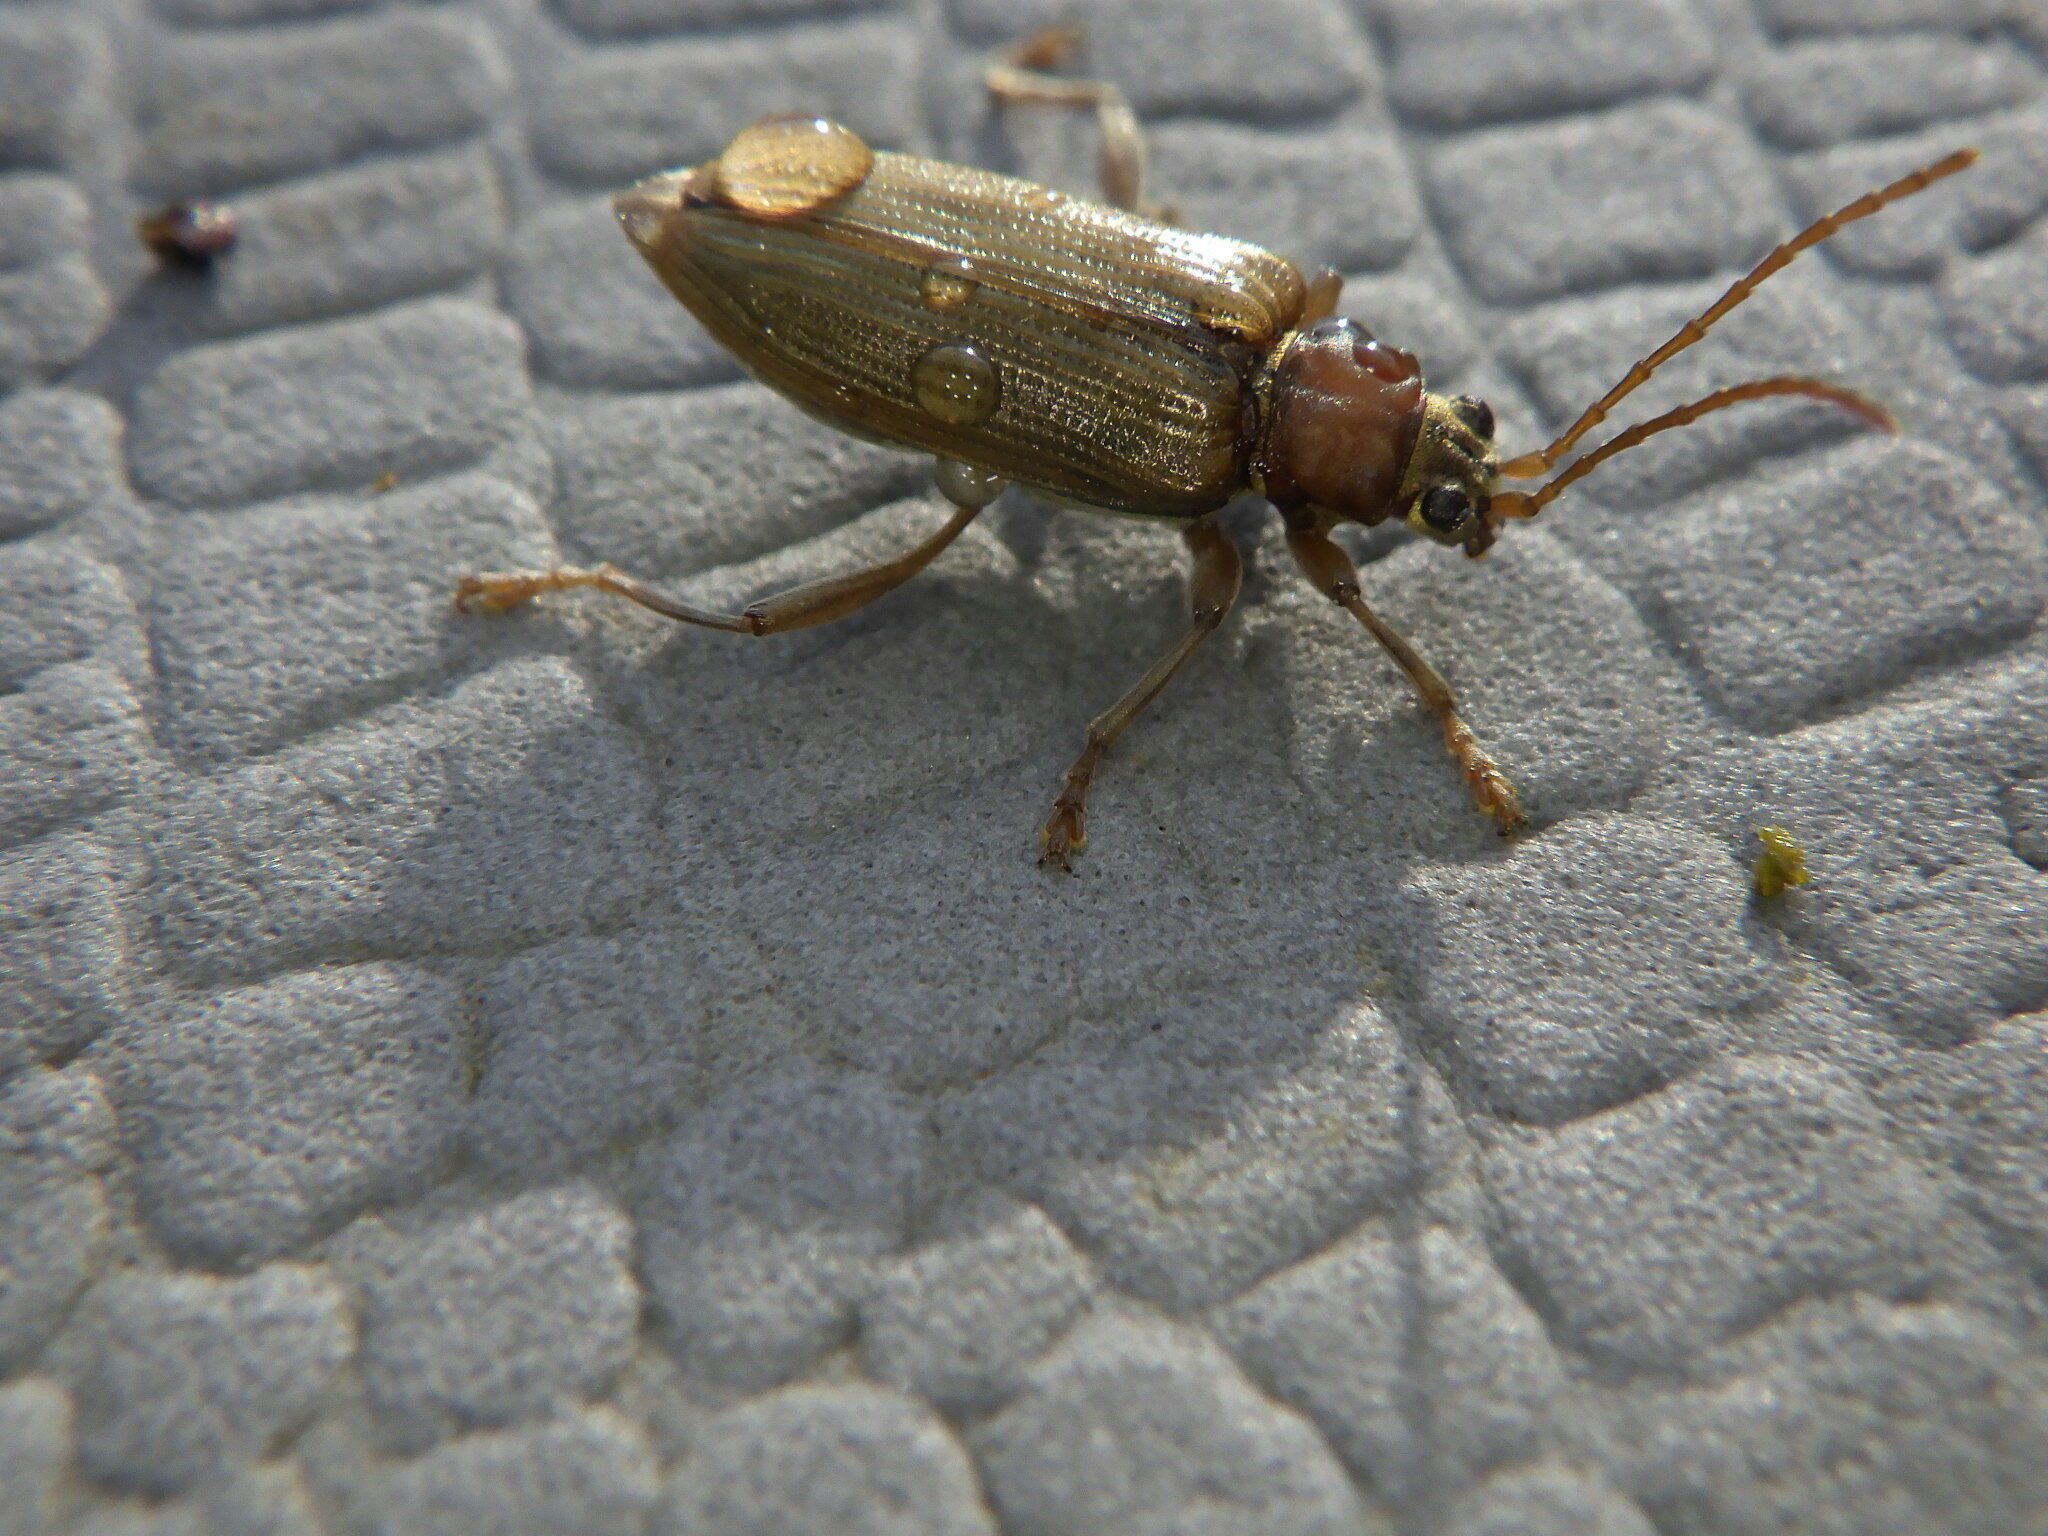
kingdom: Animalia
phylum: Arthropoda
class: Insecta
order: Coleoptera
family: Chrysomelidae
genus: Donacia
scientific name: Donacia
